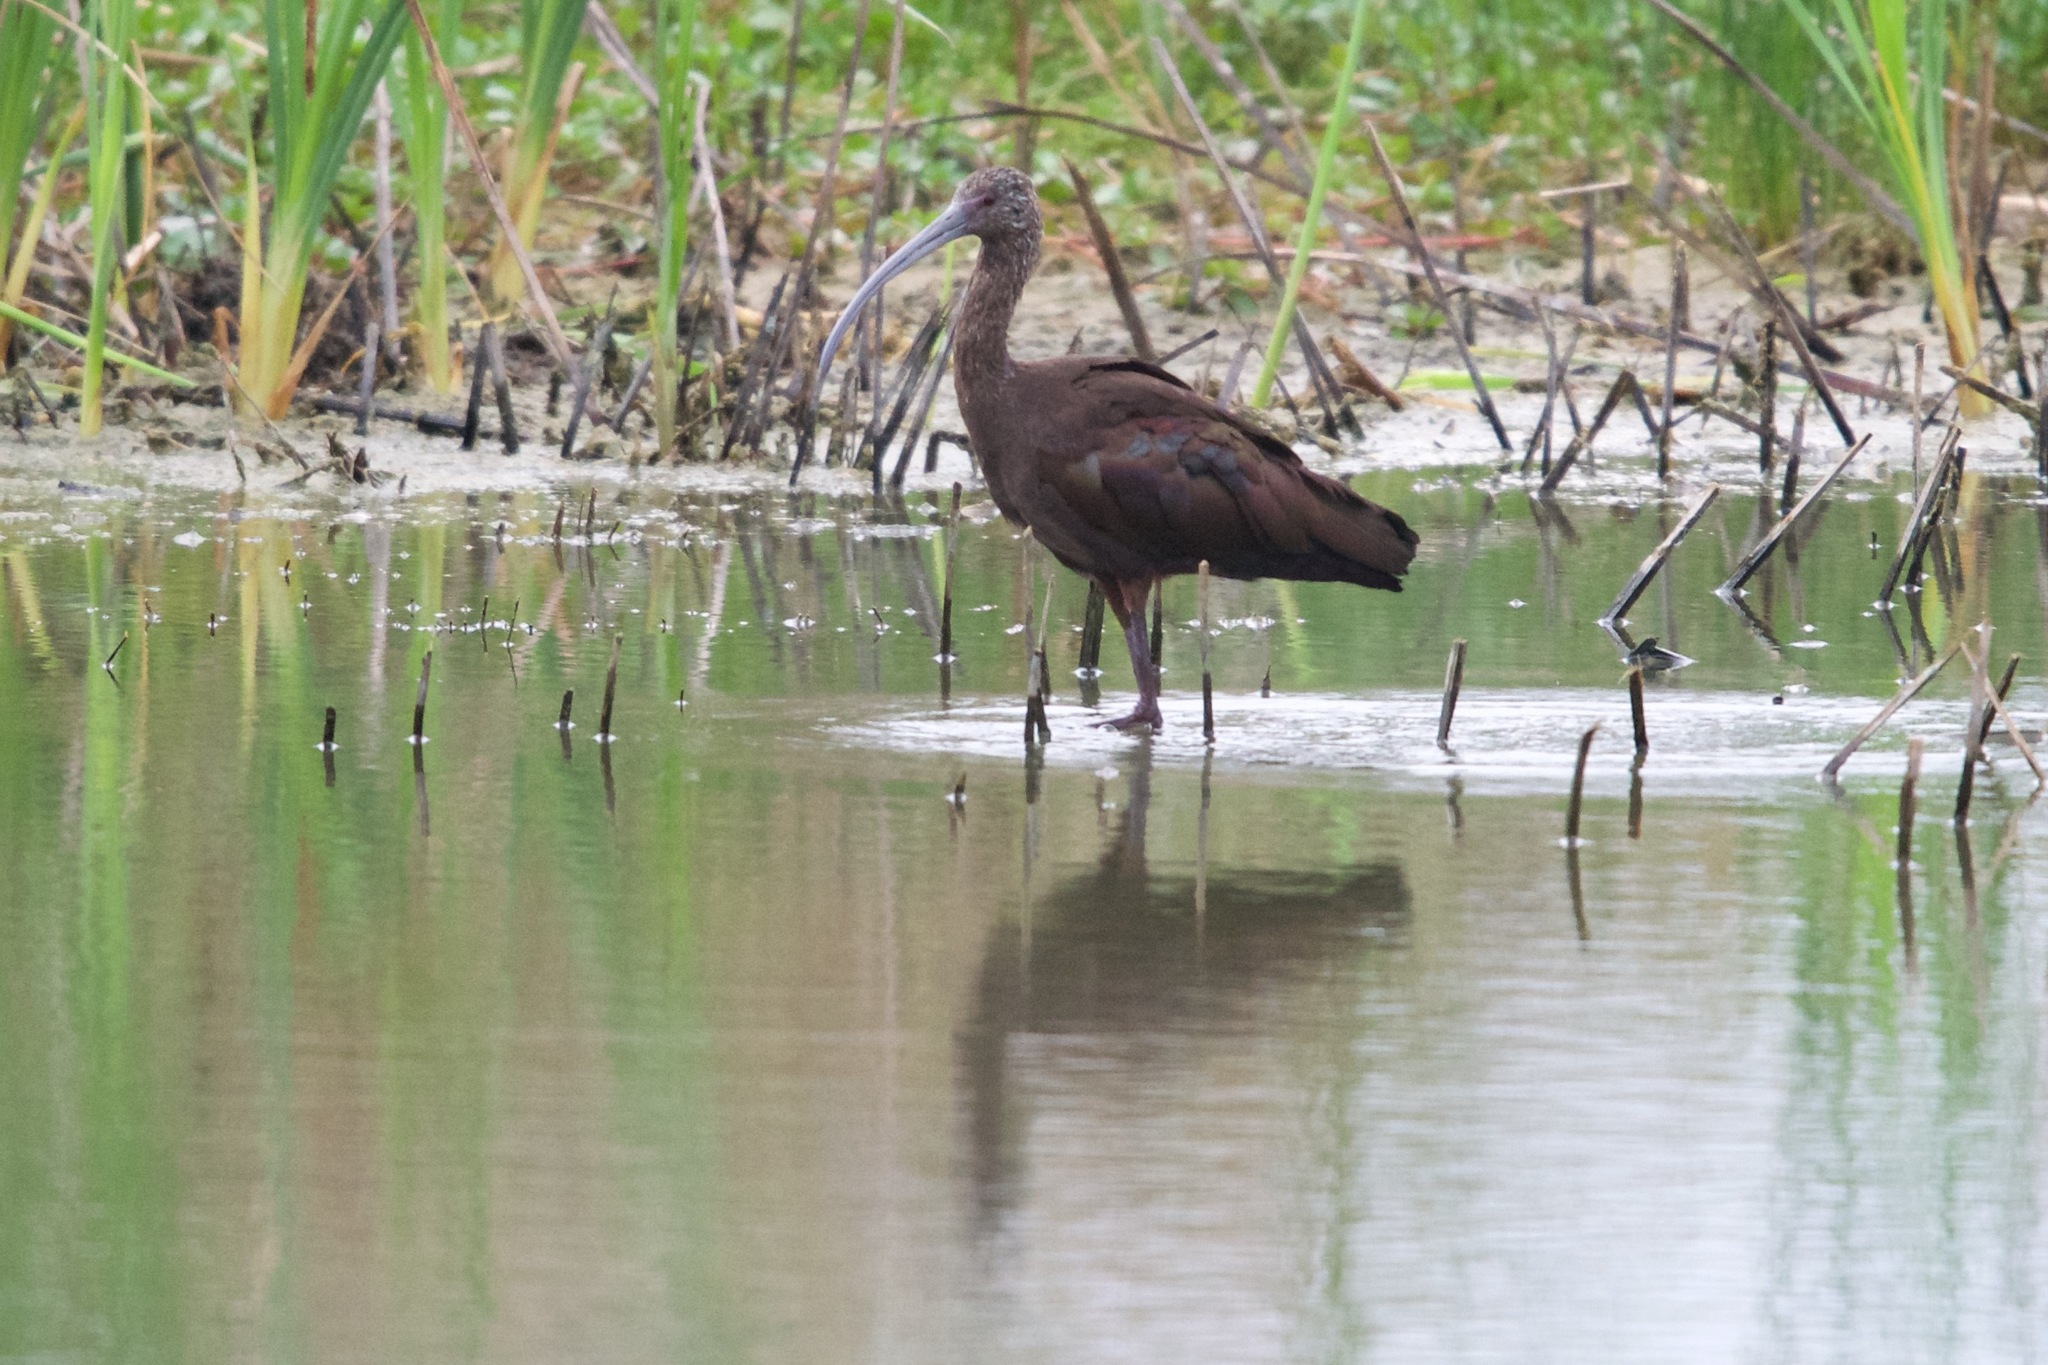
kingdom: Animalia
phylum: Chordata
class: Aves
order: Pelecaniformes
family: Threskiornithidae
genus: Plegadis
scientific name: Plegadis chihi
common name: White-faced ibis
